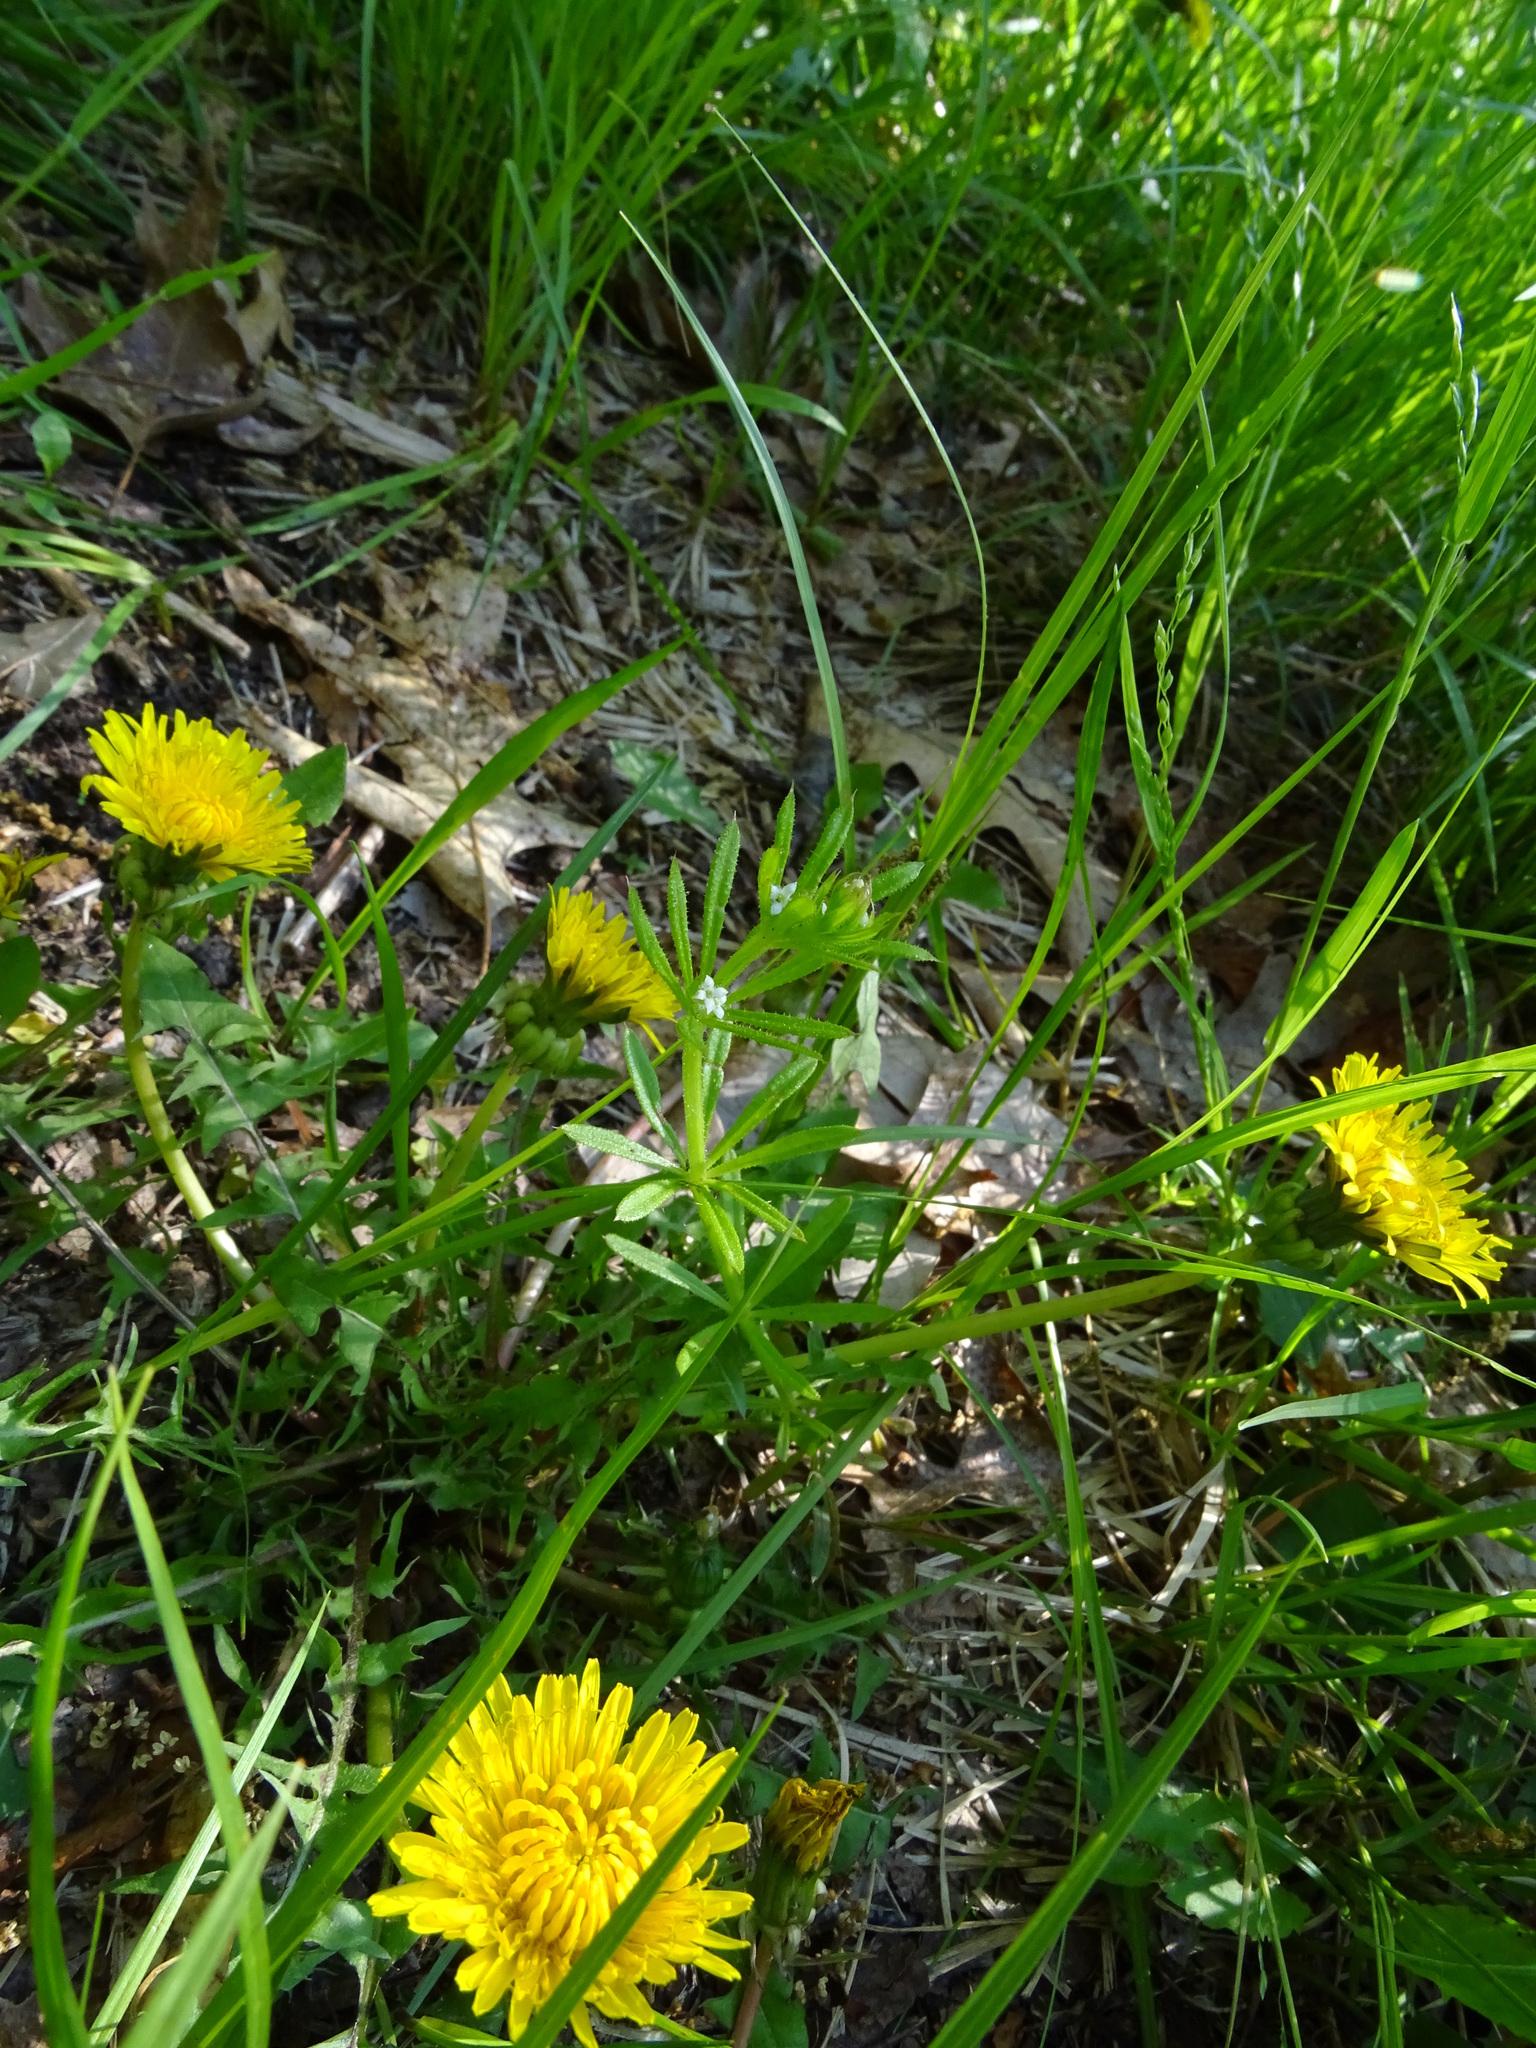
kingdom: Plantae
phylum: Tracheophyta
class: Magnoliopsida
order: Asterales
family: Asteraceae
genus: Taraxacum
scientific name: Taraxacum
